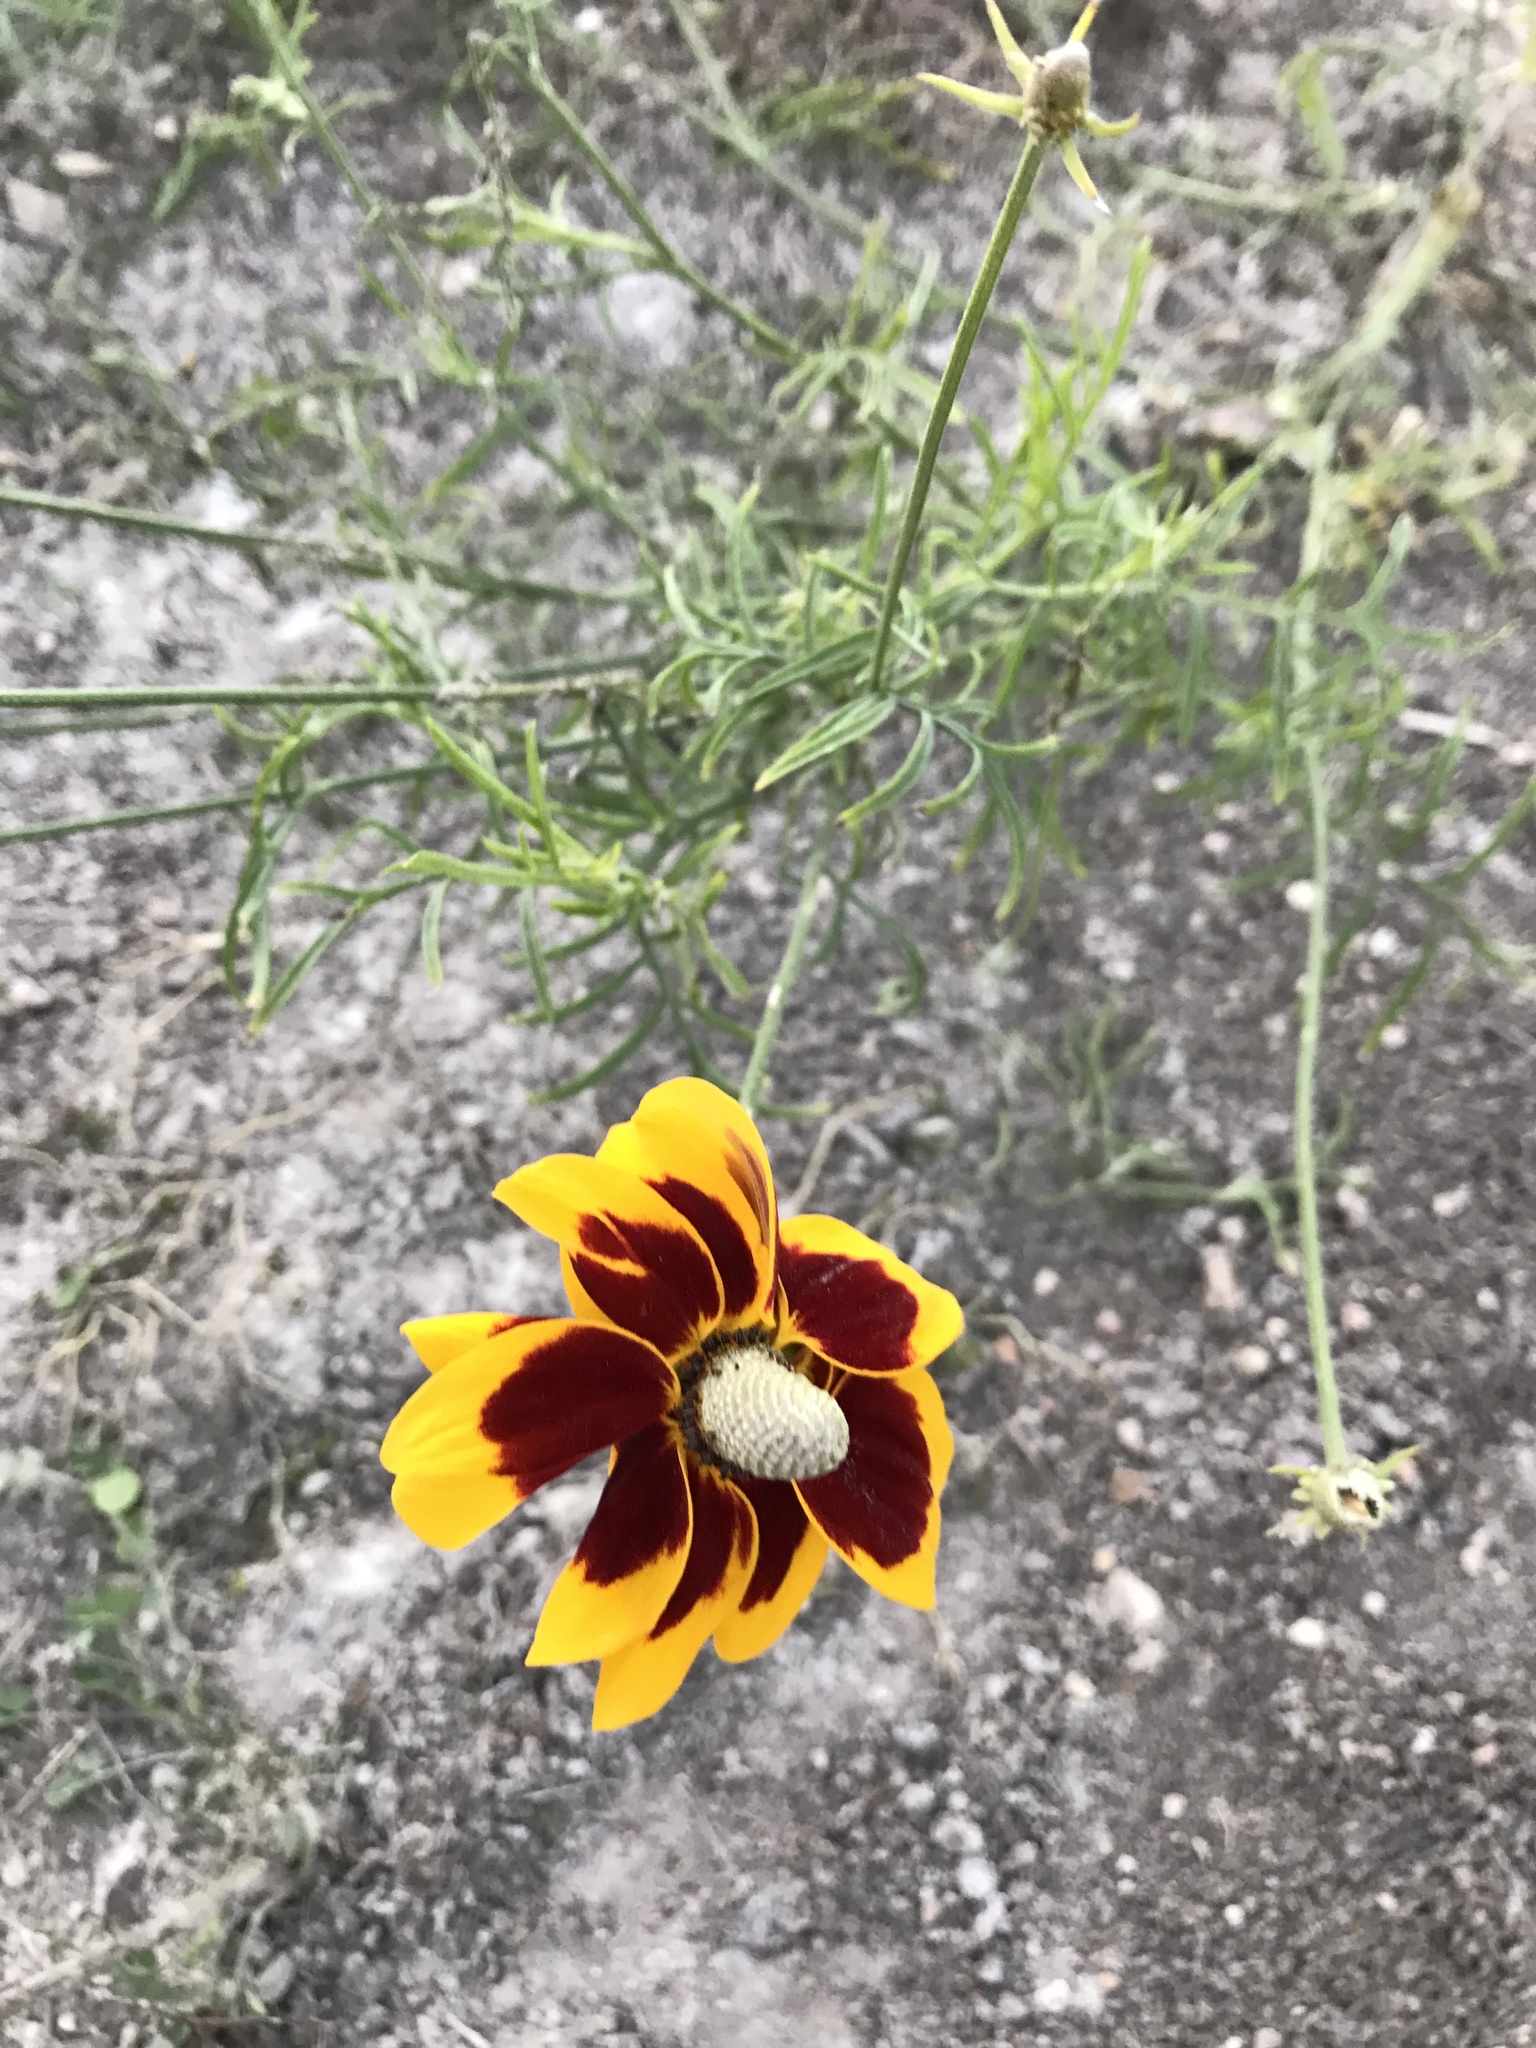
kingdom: Plantae
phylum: Tracheophyta
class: Magnoliopsida
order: Asterales
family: Asteraceae
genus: Ratibida
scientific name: Ratibida columnifera
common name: Prairie coneflower
